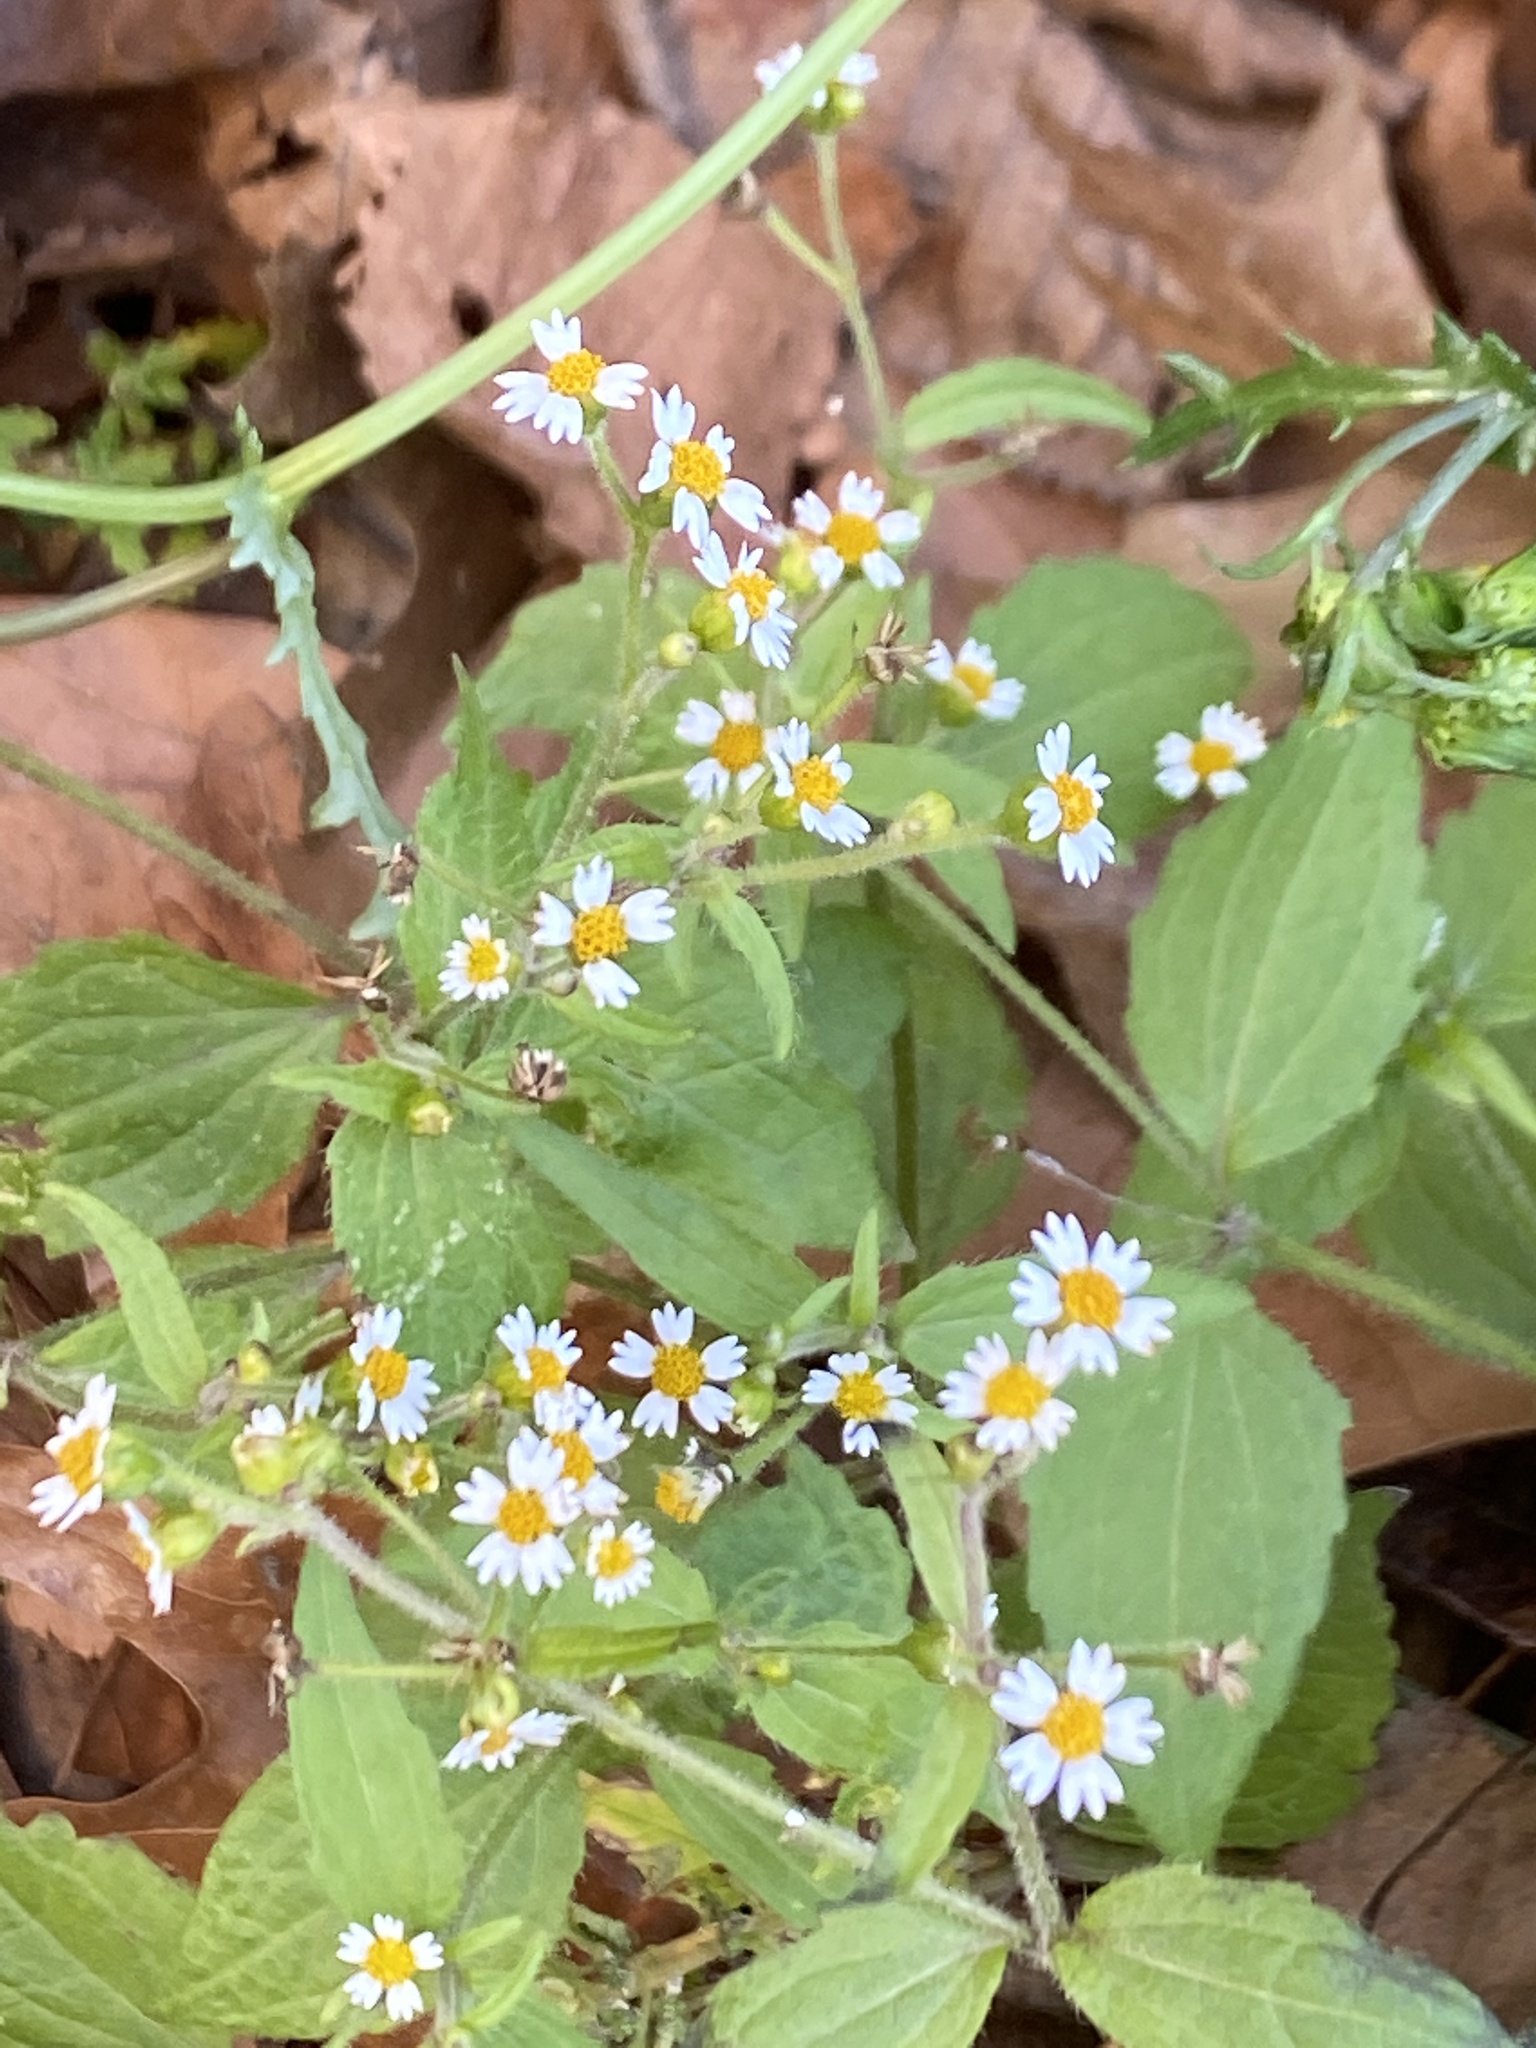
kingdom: Plantae
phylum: Tracheophyta
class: Magnoliopsida
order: Asterales
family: Asteraceae
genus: Galinsoga
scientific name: Galinsoga quadriradiata
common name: Shaggy soldier
